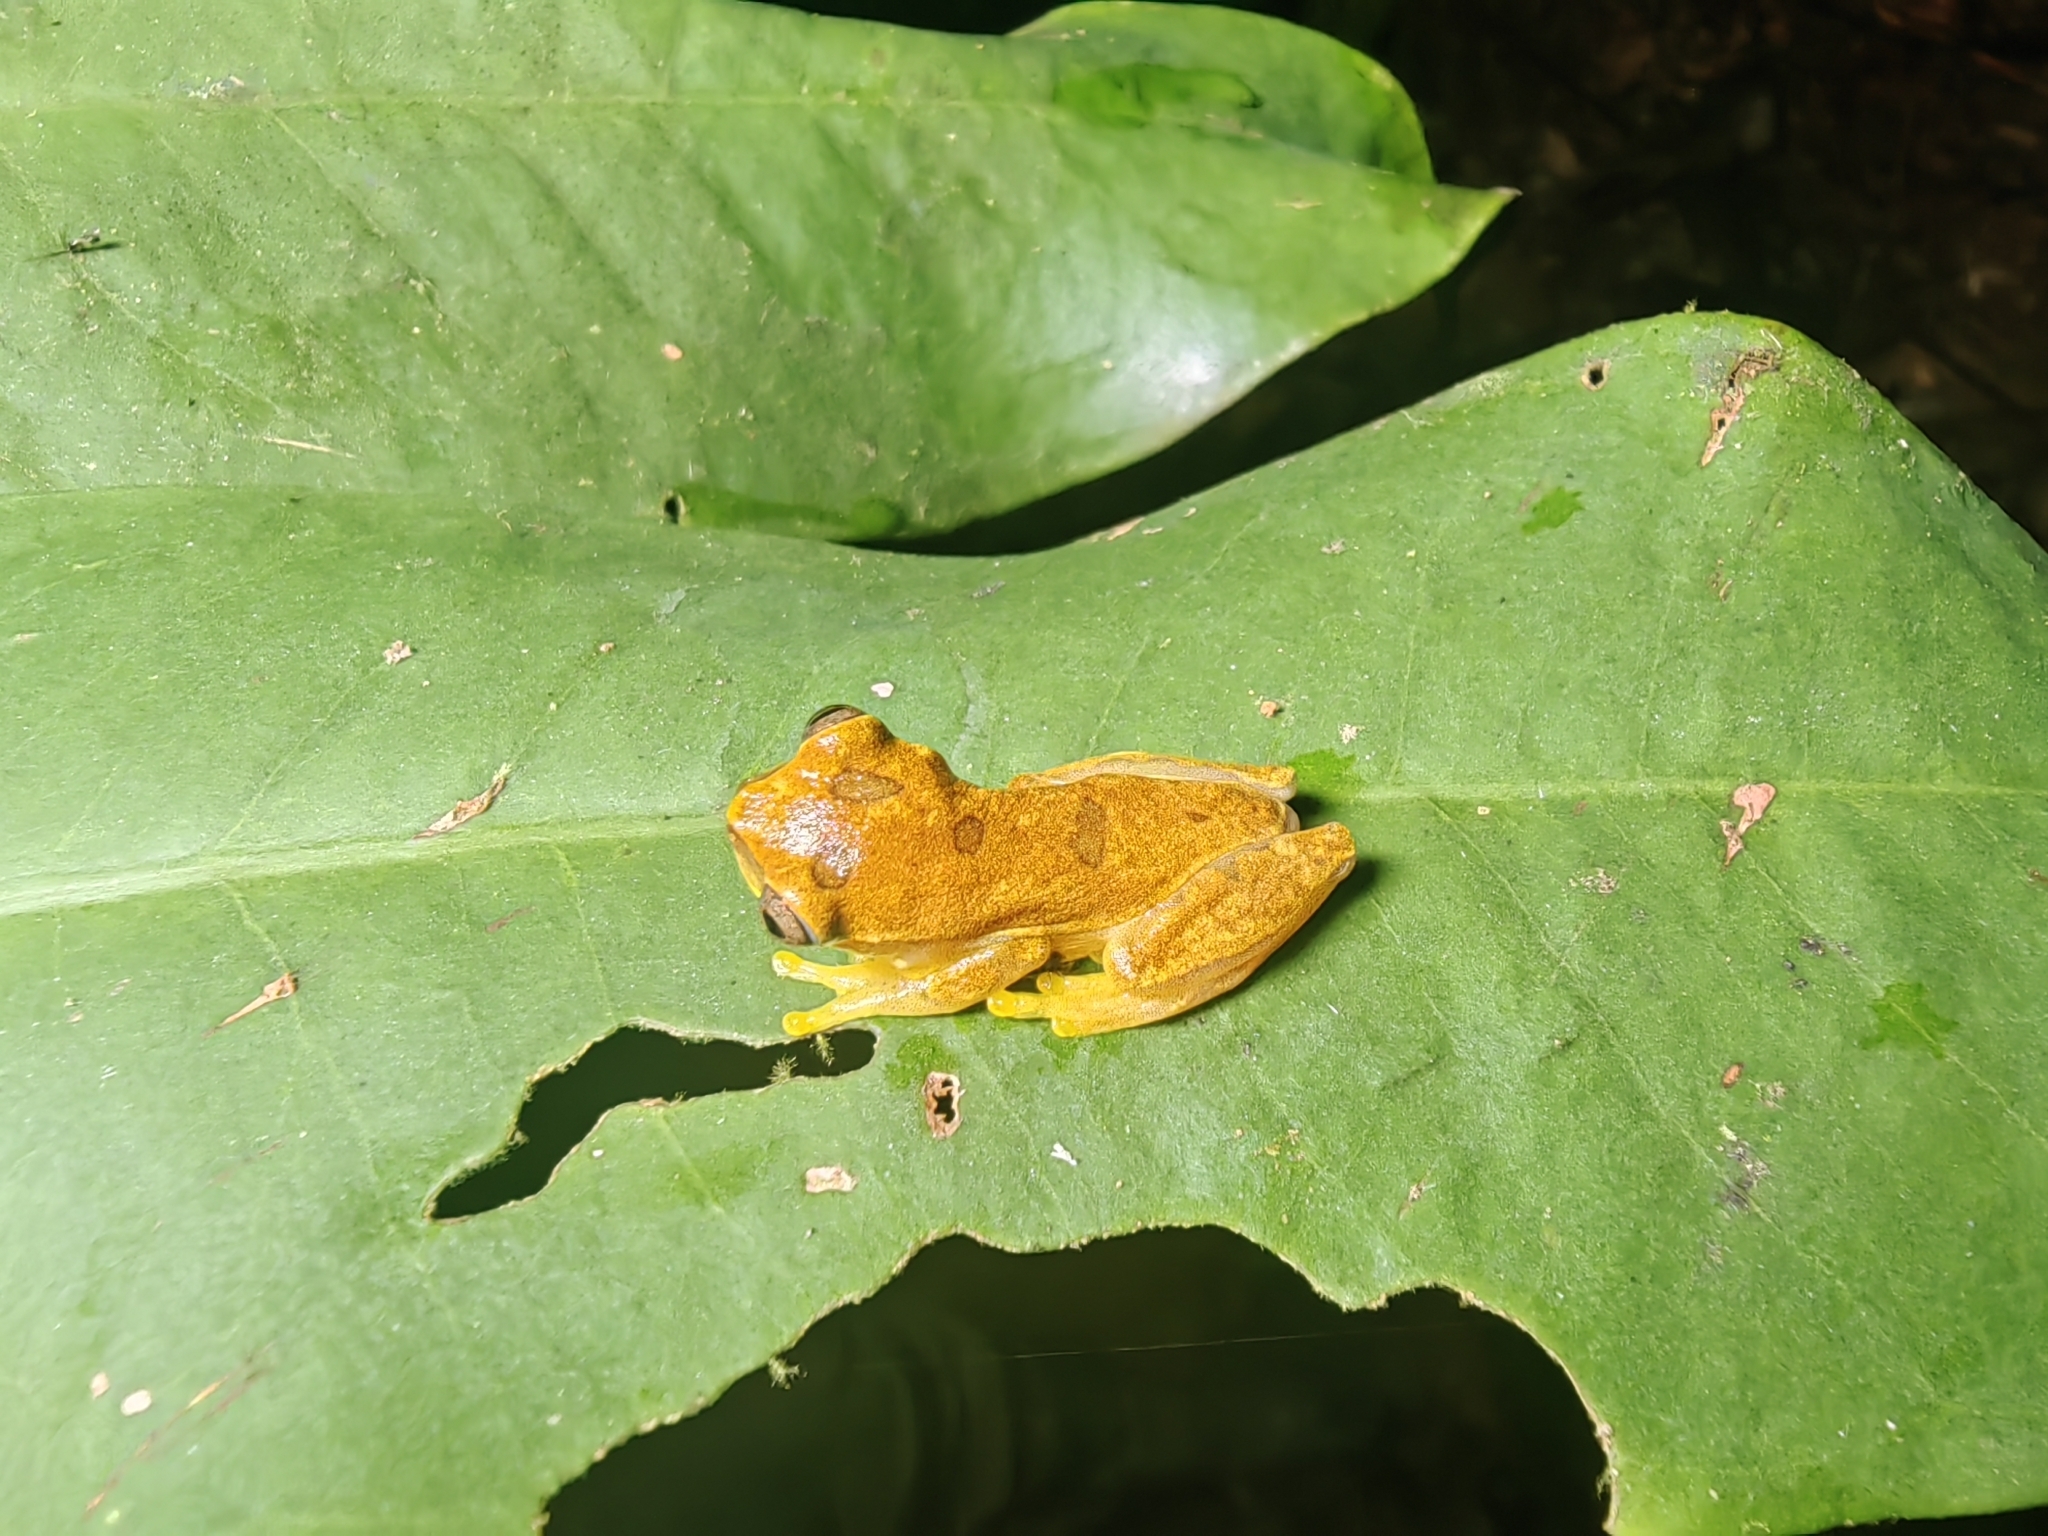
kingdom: Animalia
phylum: Chordata
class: Amphibia
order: Anura
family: Hylidae
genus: Dendropsophus
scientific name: Dendropsophus ebraccatus
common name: Hourglass treefrog
